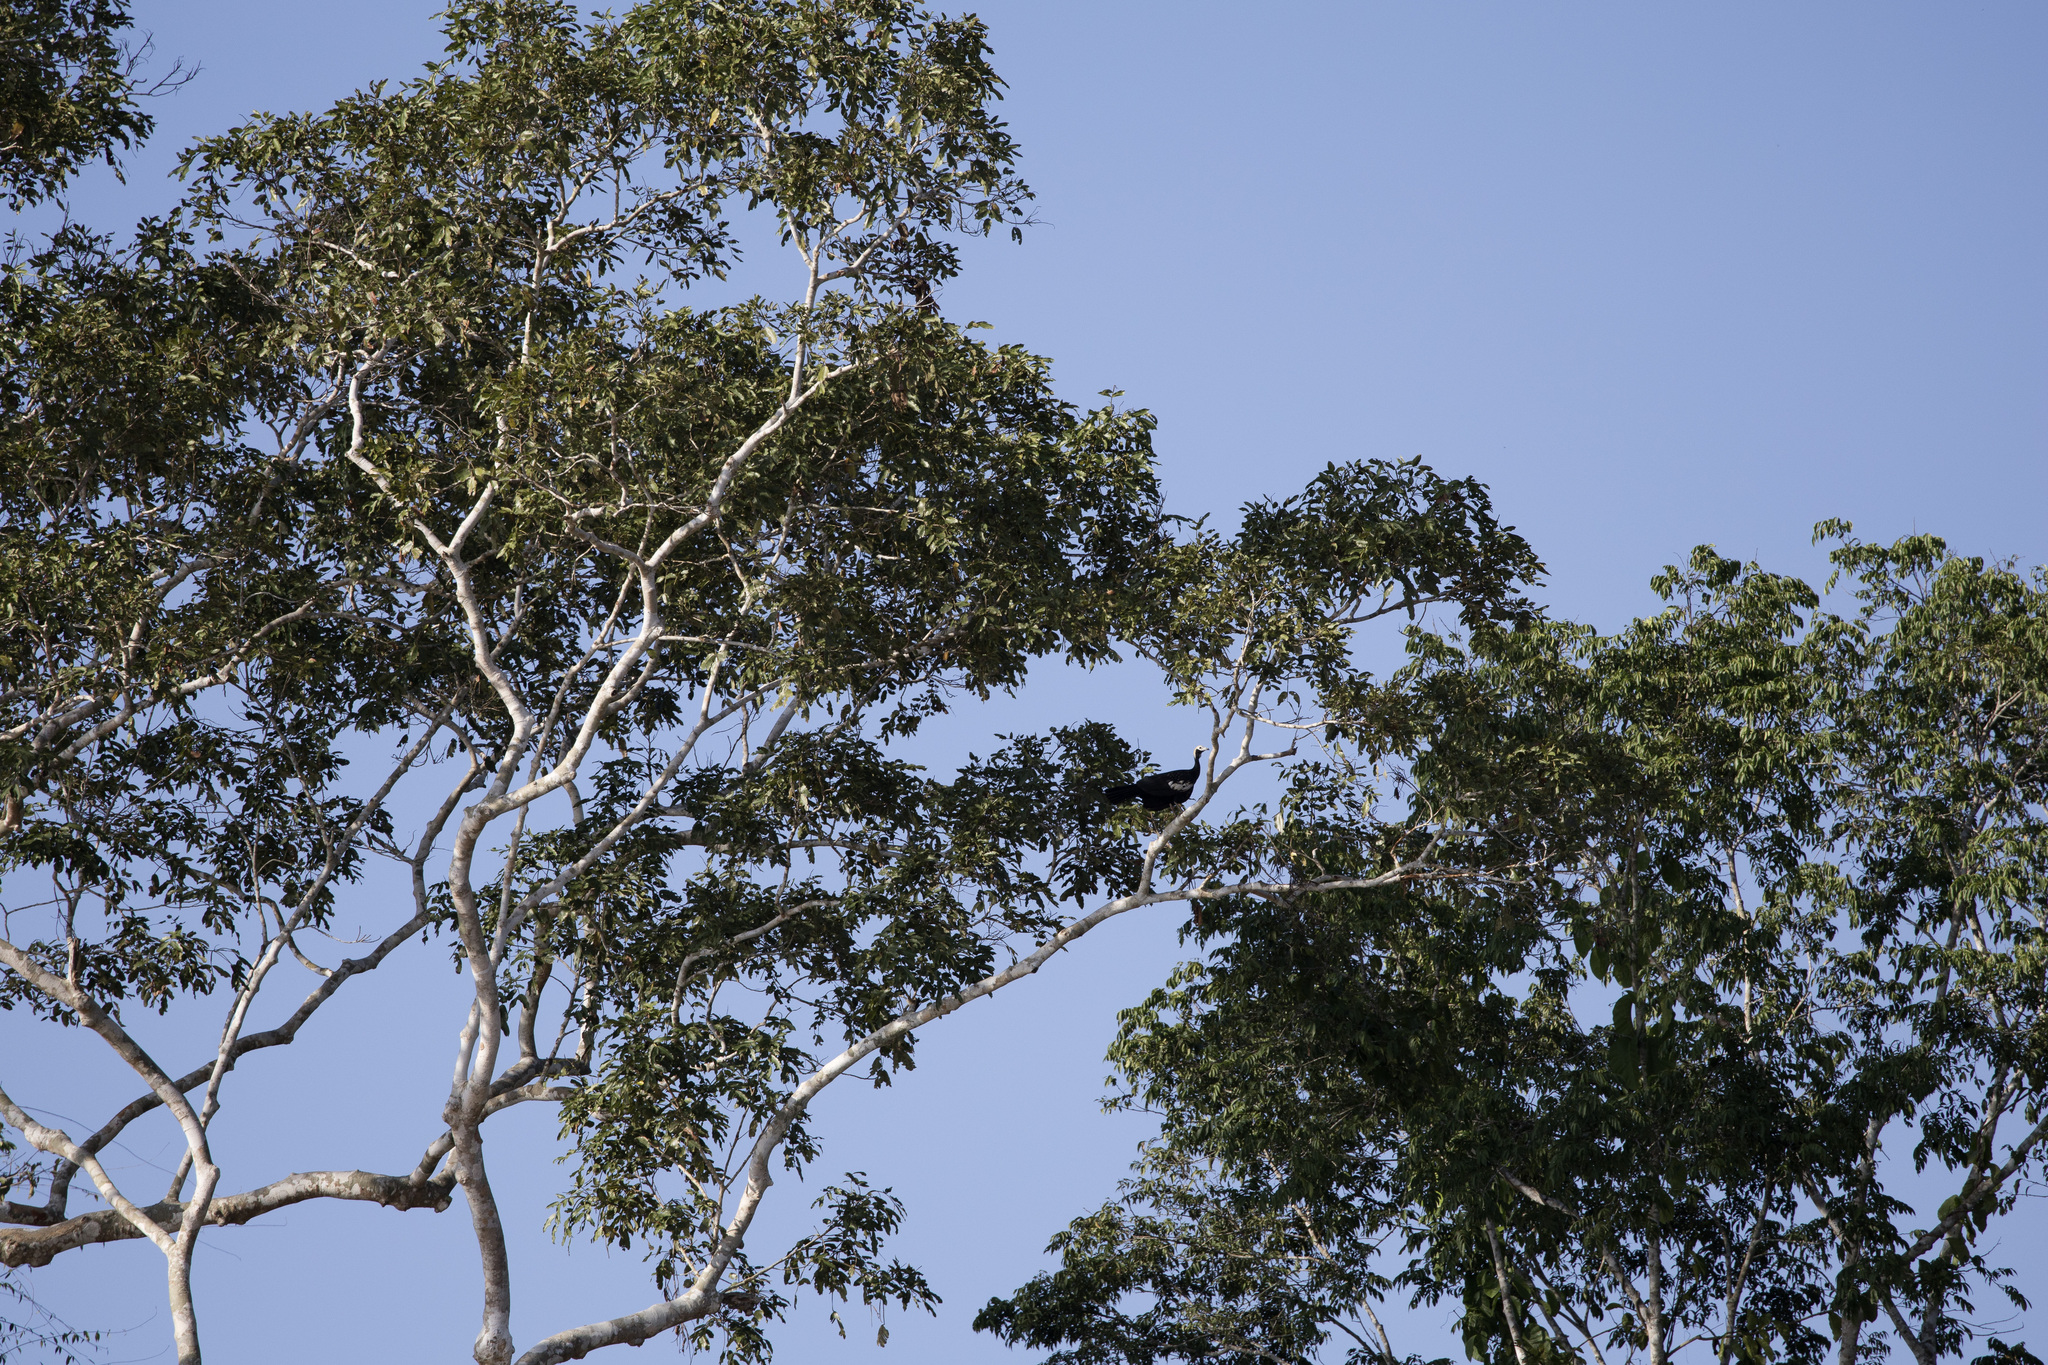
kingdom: Animalia
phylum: Chordata
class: Aves
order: Galliformes
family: Cracidae
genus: Pipile
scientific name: Pipile cumanensis
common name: Blue-throated piping-guan
